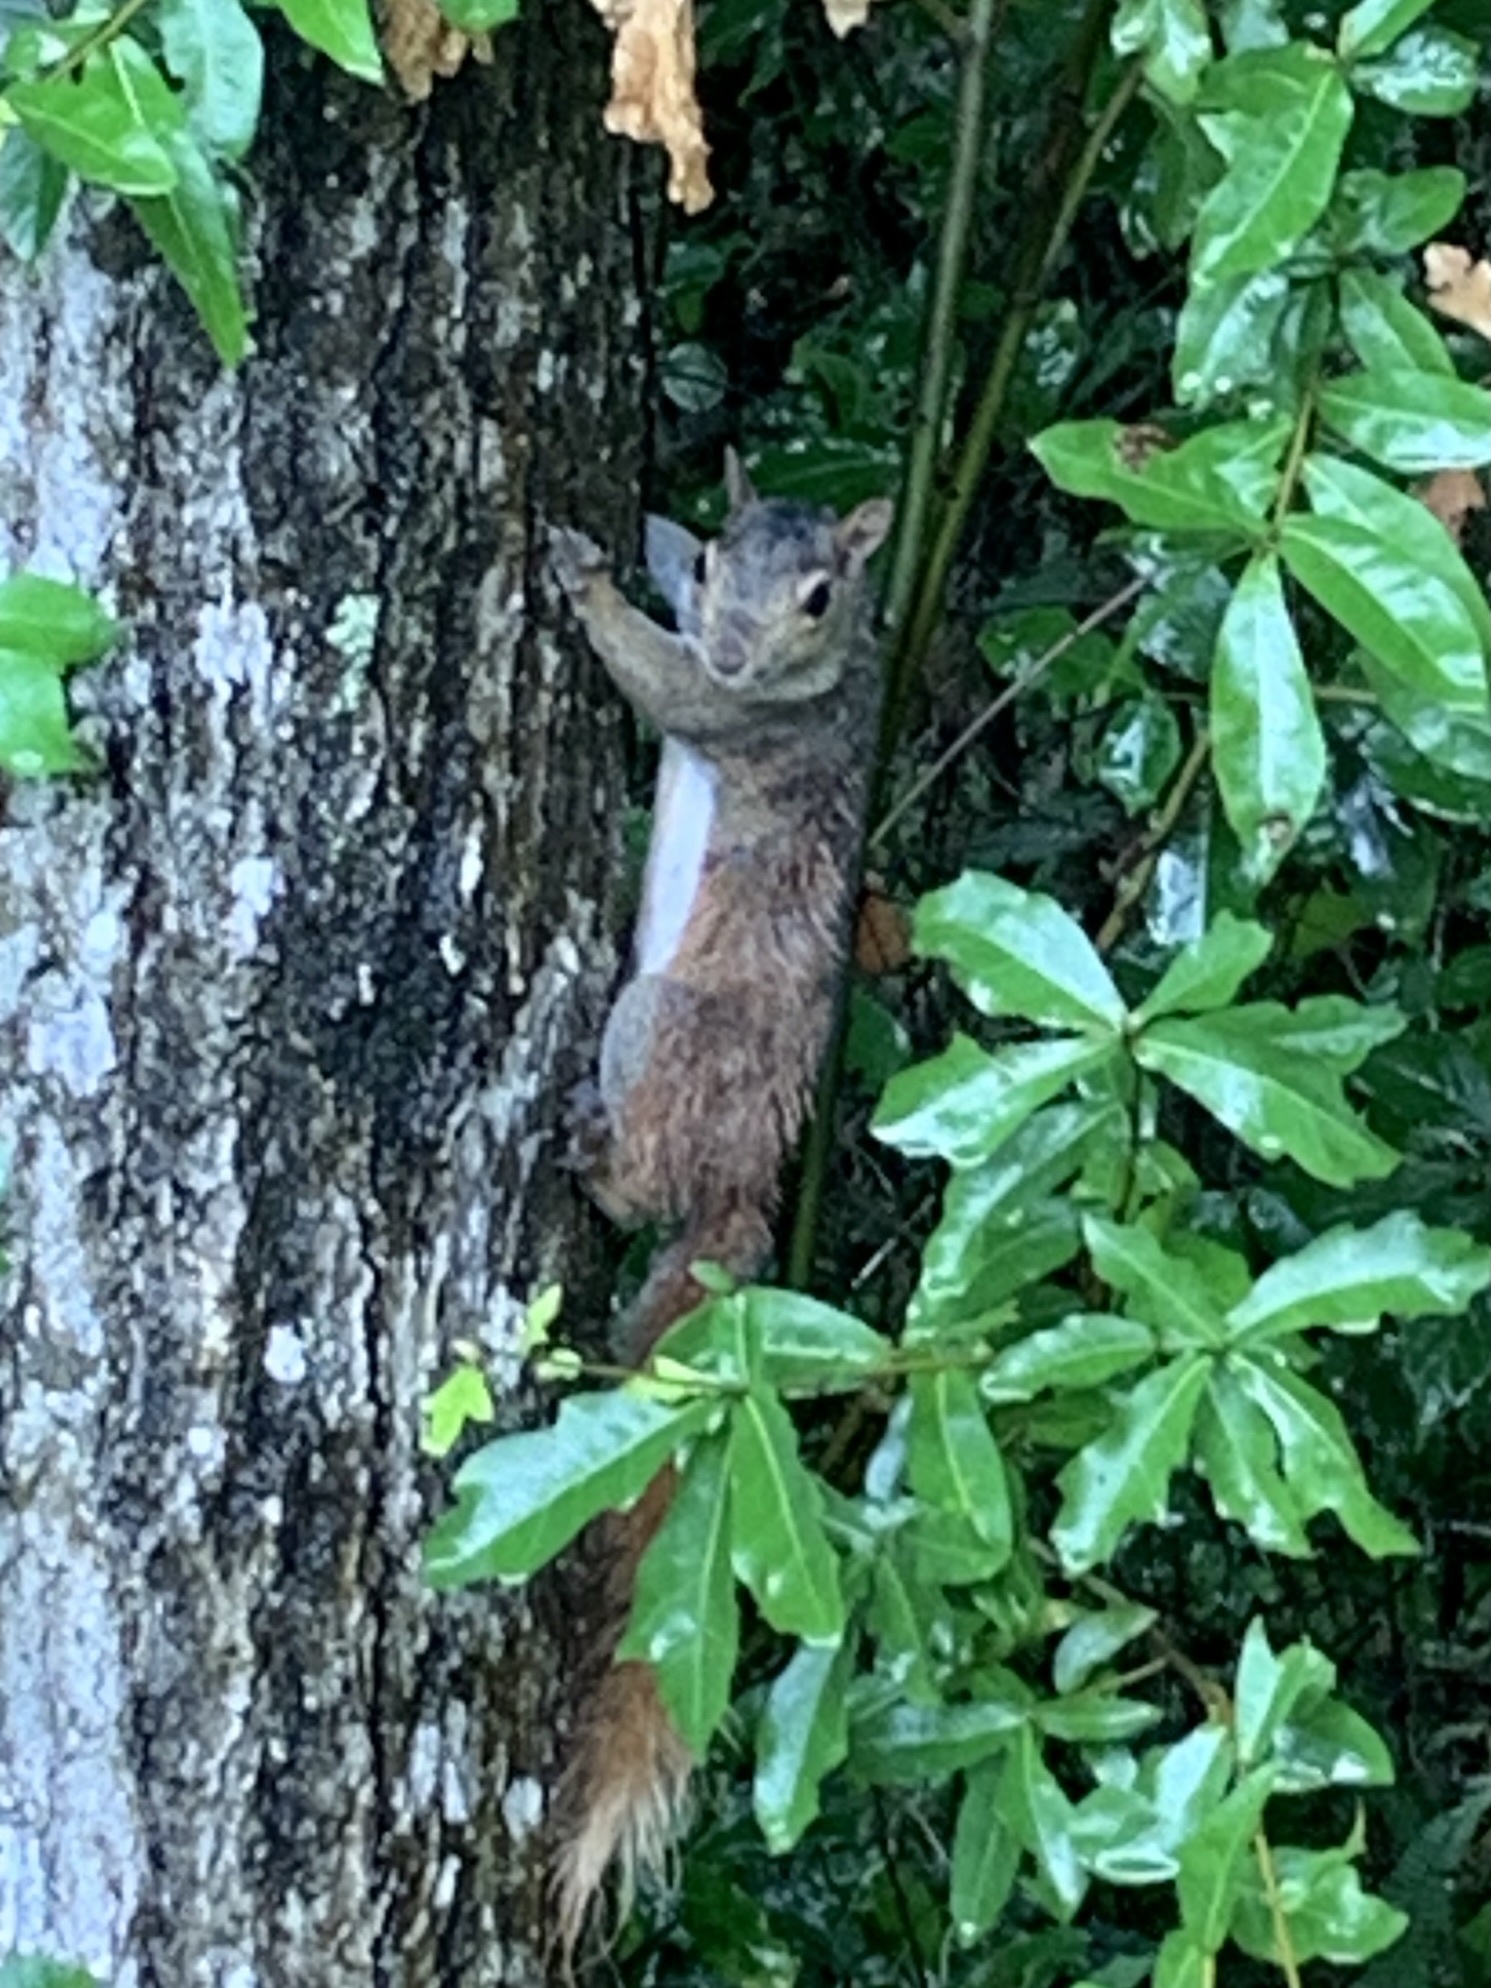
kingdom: Animalia
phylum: Chordata
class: Mammalia
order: Rodentia
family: Sciuridae
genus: Sciurus
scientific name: Sciurus carolinensis
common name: Eastern gray squirrel
